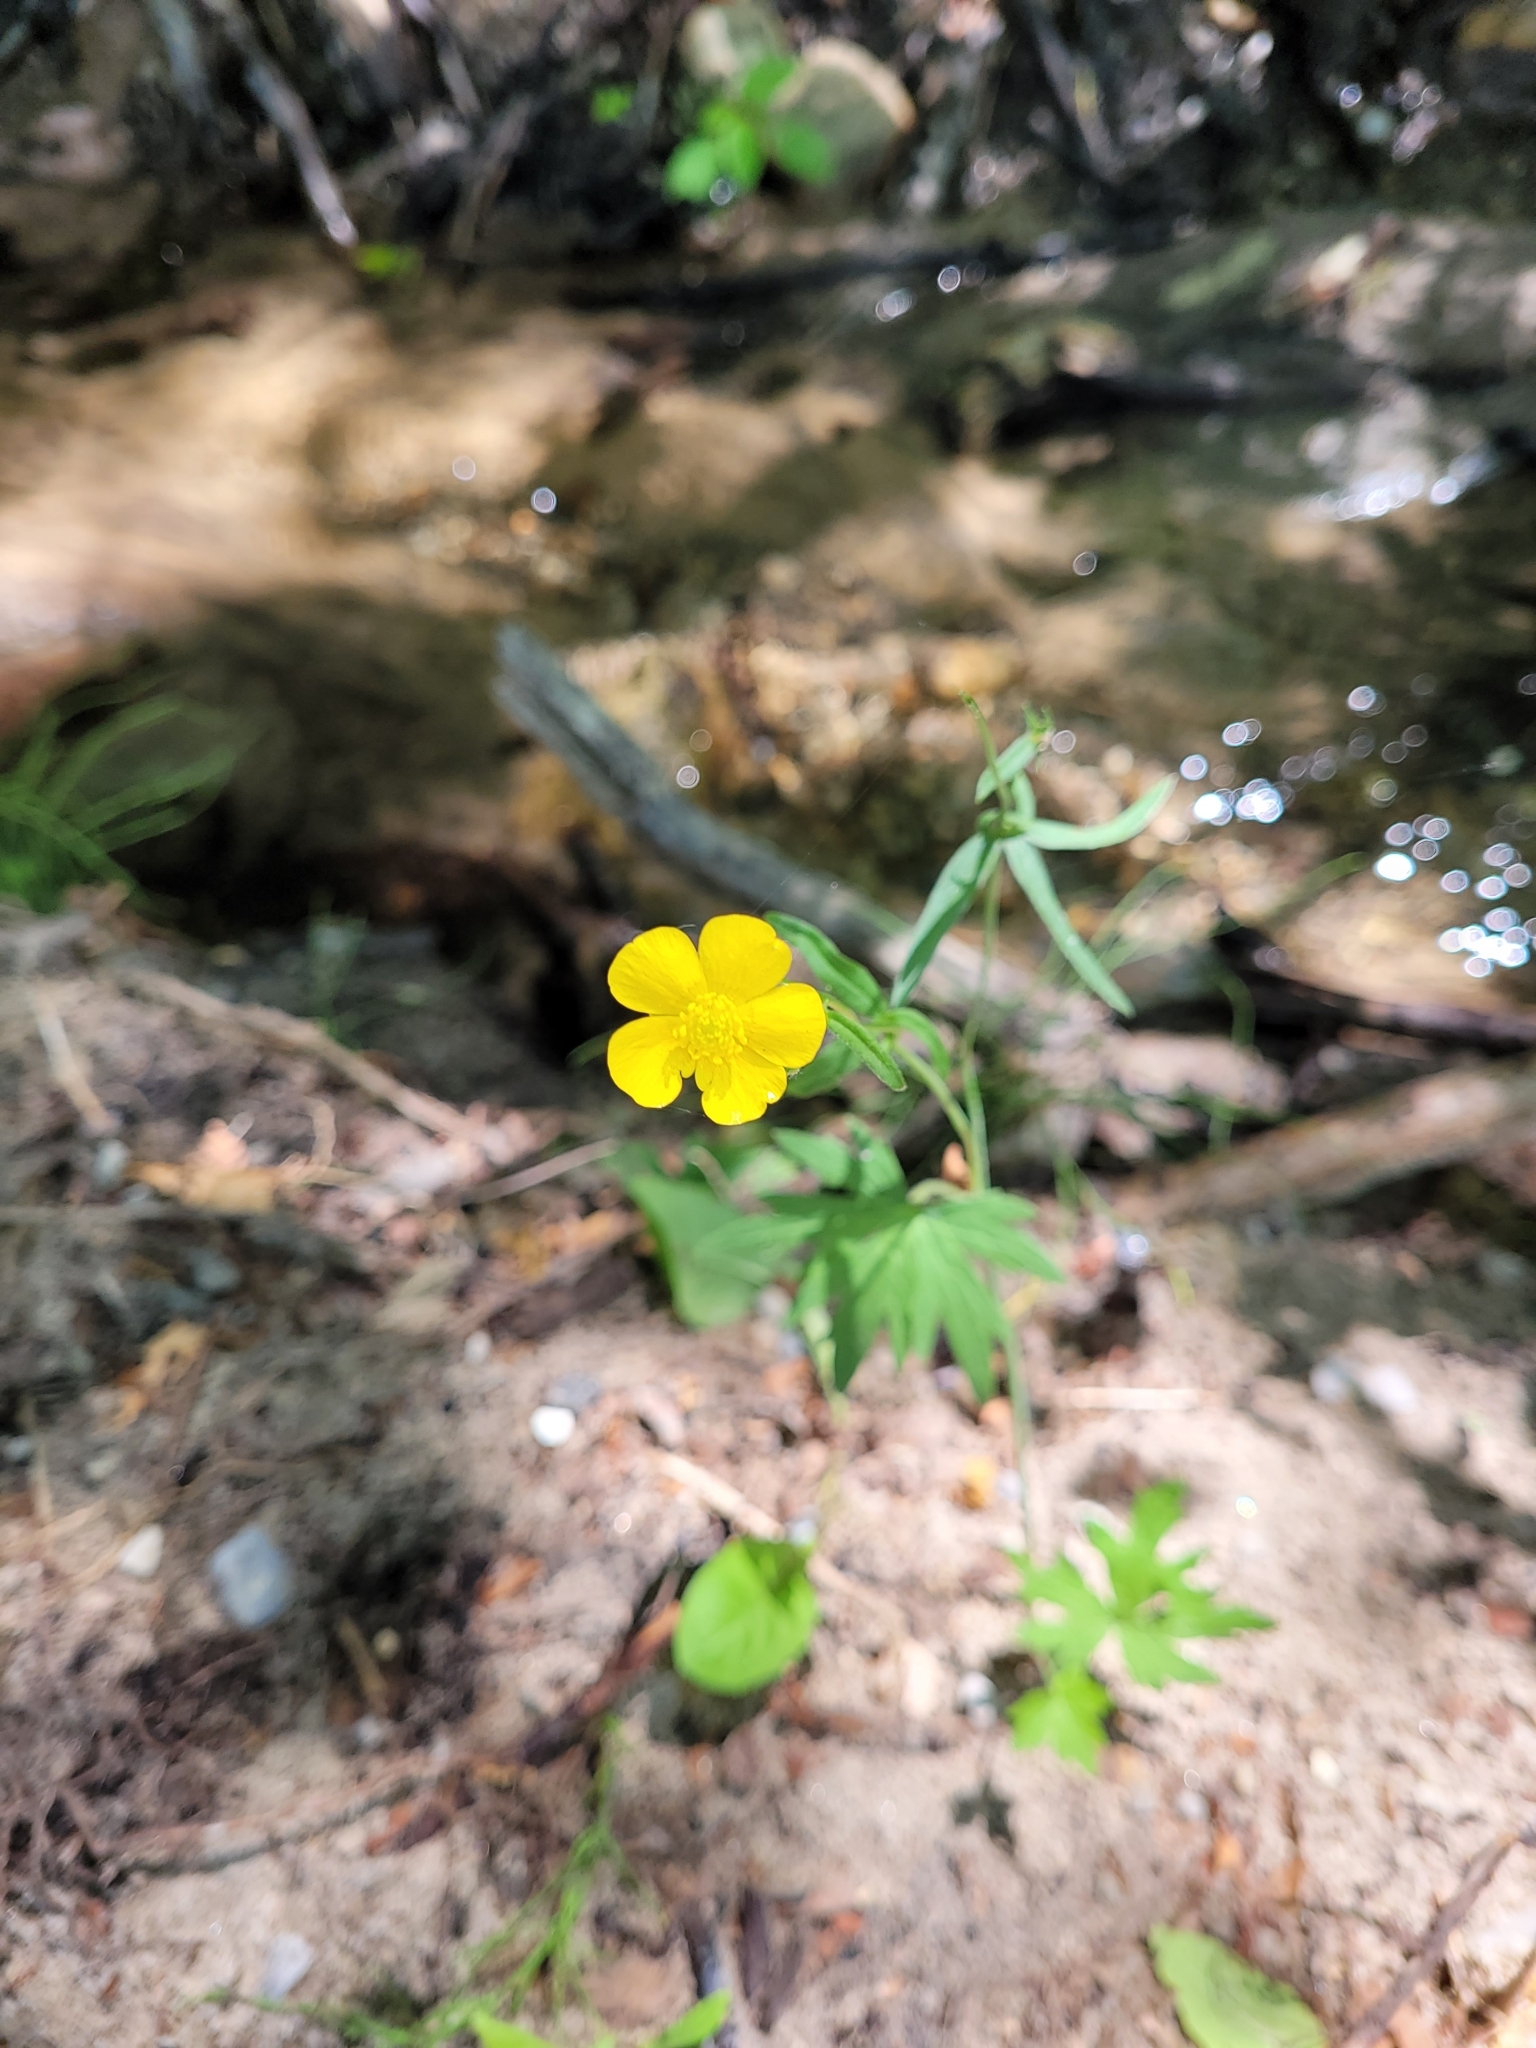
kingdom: Plantae
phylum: Tracheophyta
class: Magnoliopsida
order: Ranunculales
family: Ranunculaceae
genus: Ranunculus
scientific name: Ranunculus hispidus
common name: Bristly buttercup
